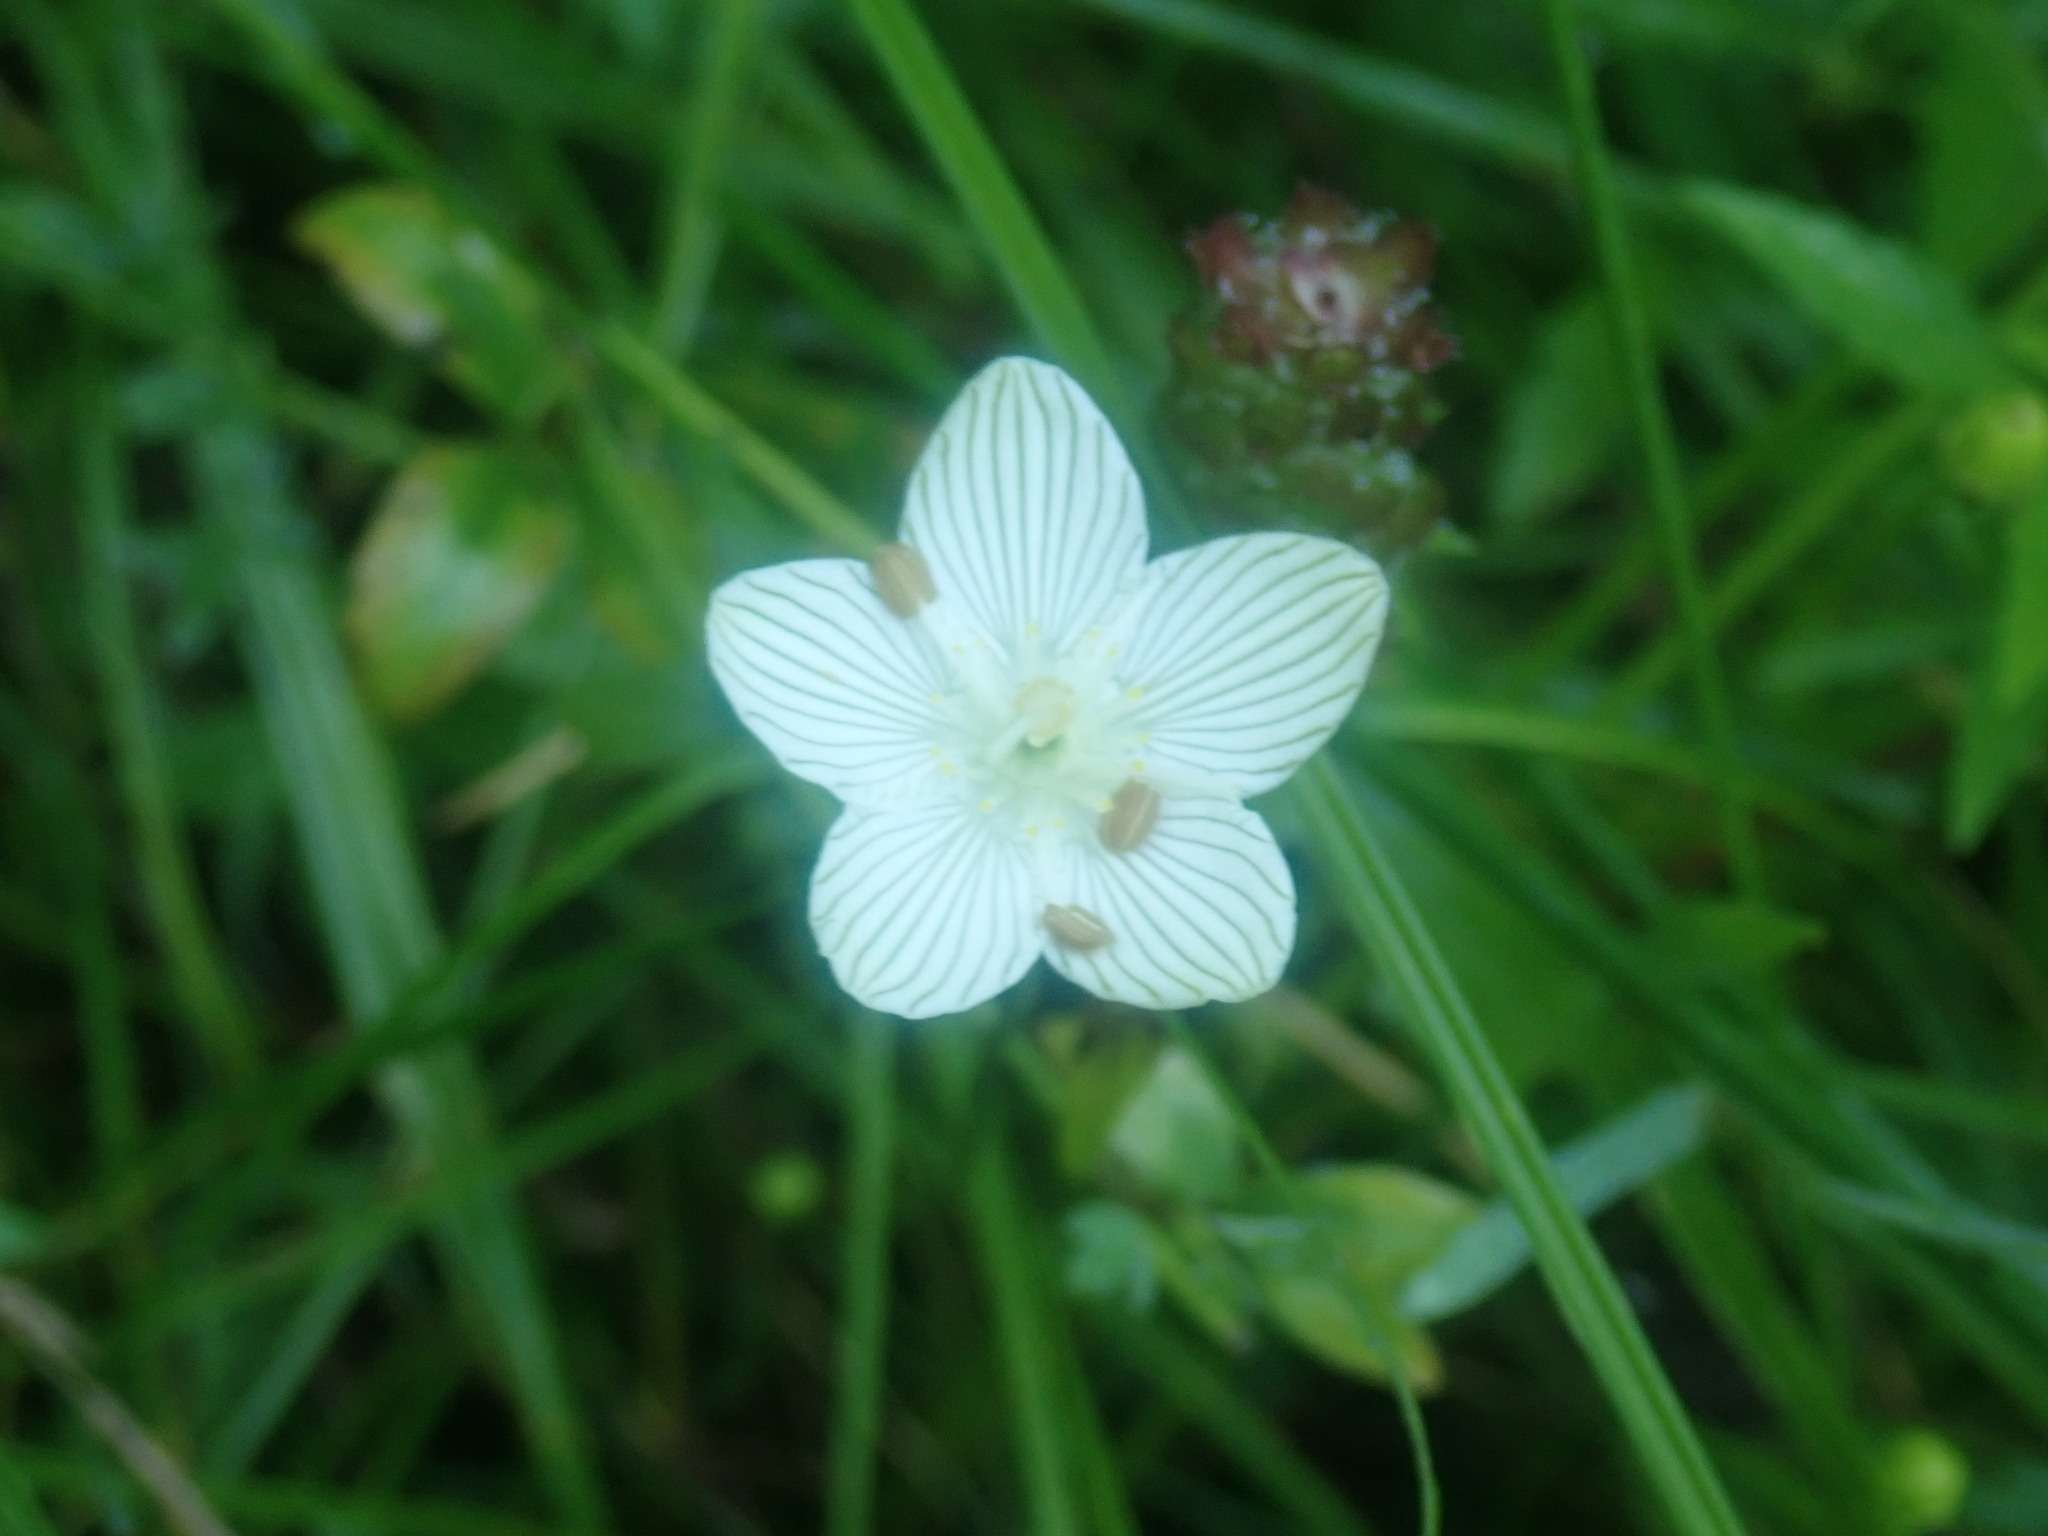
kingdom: Plantae
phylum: Tracheophyta
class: Magnoliopsida
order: Celastrales
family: Parnassiaceae
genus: Parnassia
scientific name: Parnassia glauca
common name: American grass-of-parnassus
